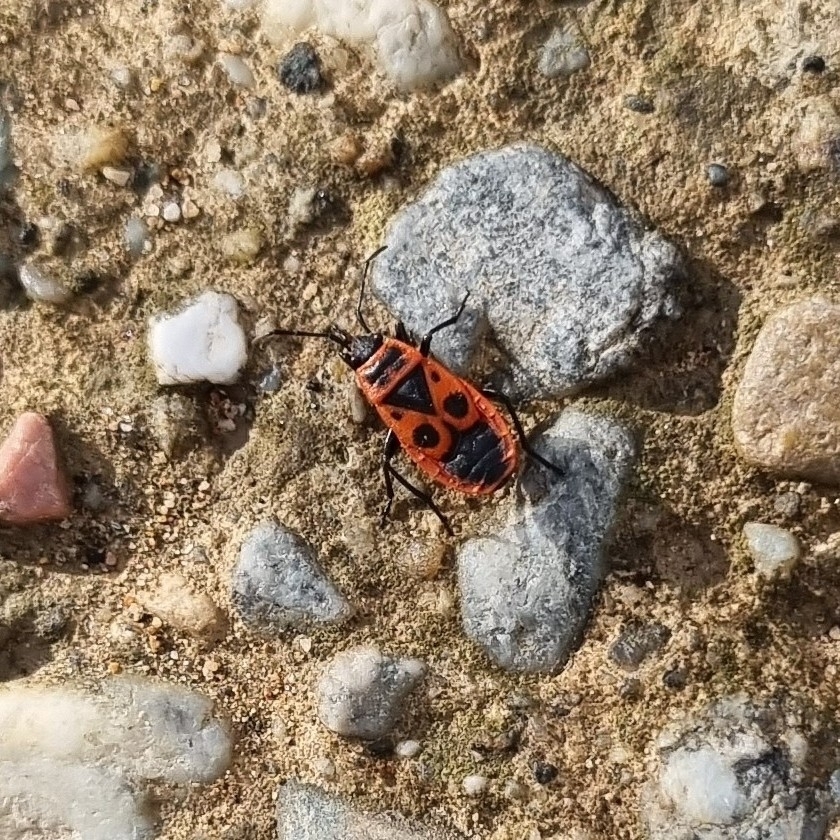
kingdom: Animalia
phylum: Arthropoda
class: Insecta
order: Hemiptera
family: Pyrrhocoridae
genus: Pyrrhocoris
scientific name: Pyrrhocoris apterus
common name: Firebug
